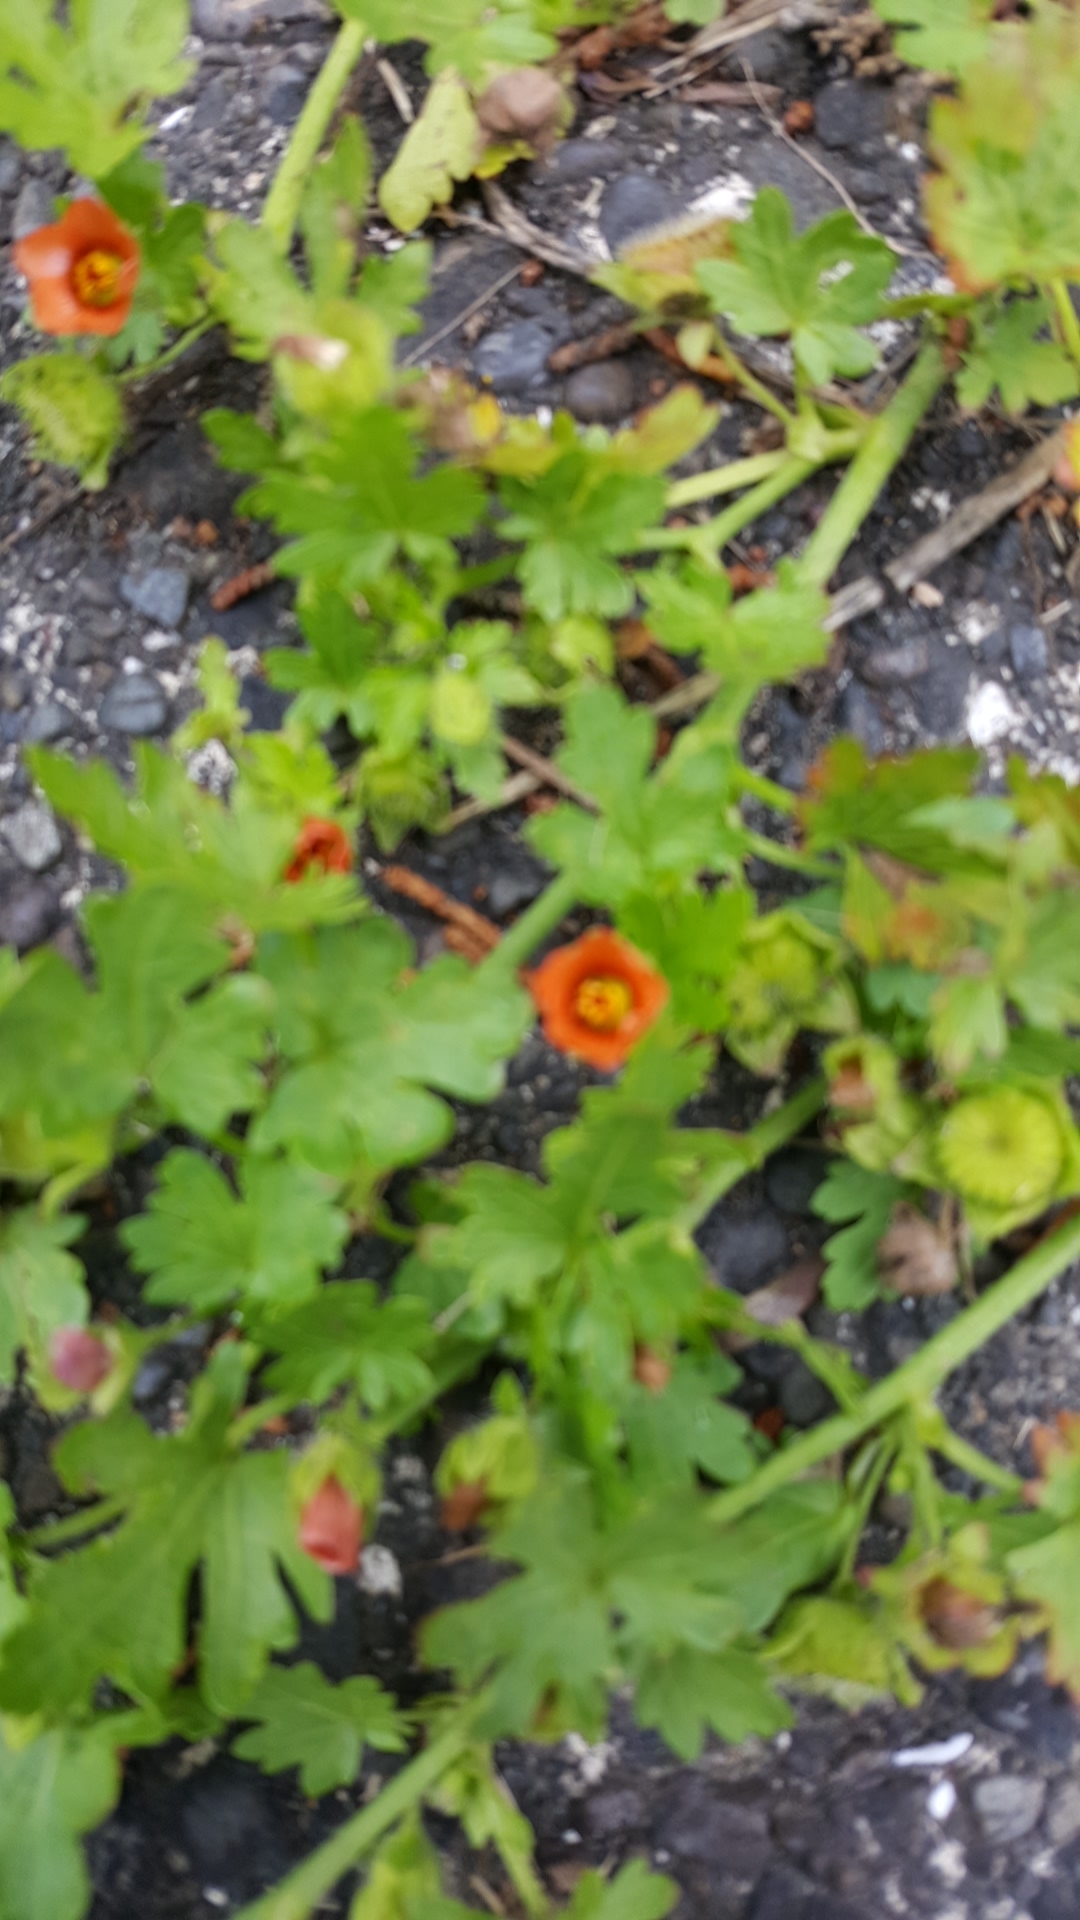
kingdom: Plantae
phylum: Tracheophyta
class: Magnoliopsida
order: Malvales
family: Malvaceae
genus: Modiola
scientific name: Modiola caroliniana
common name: Carolina bristlemallow
